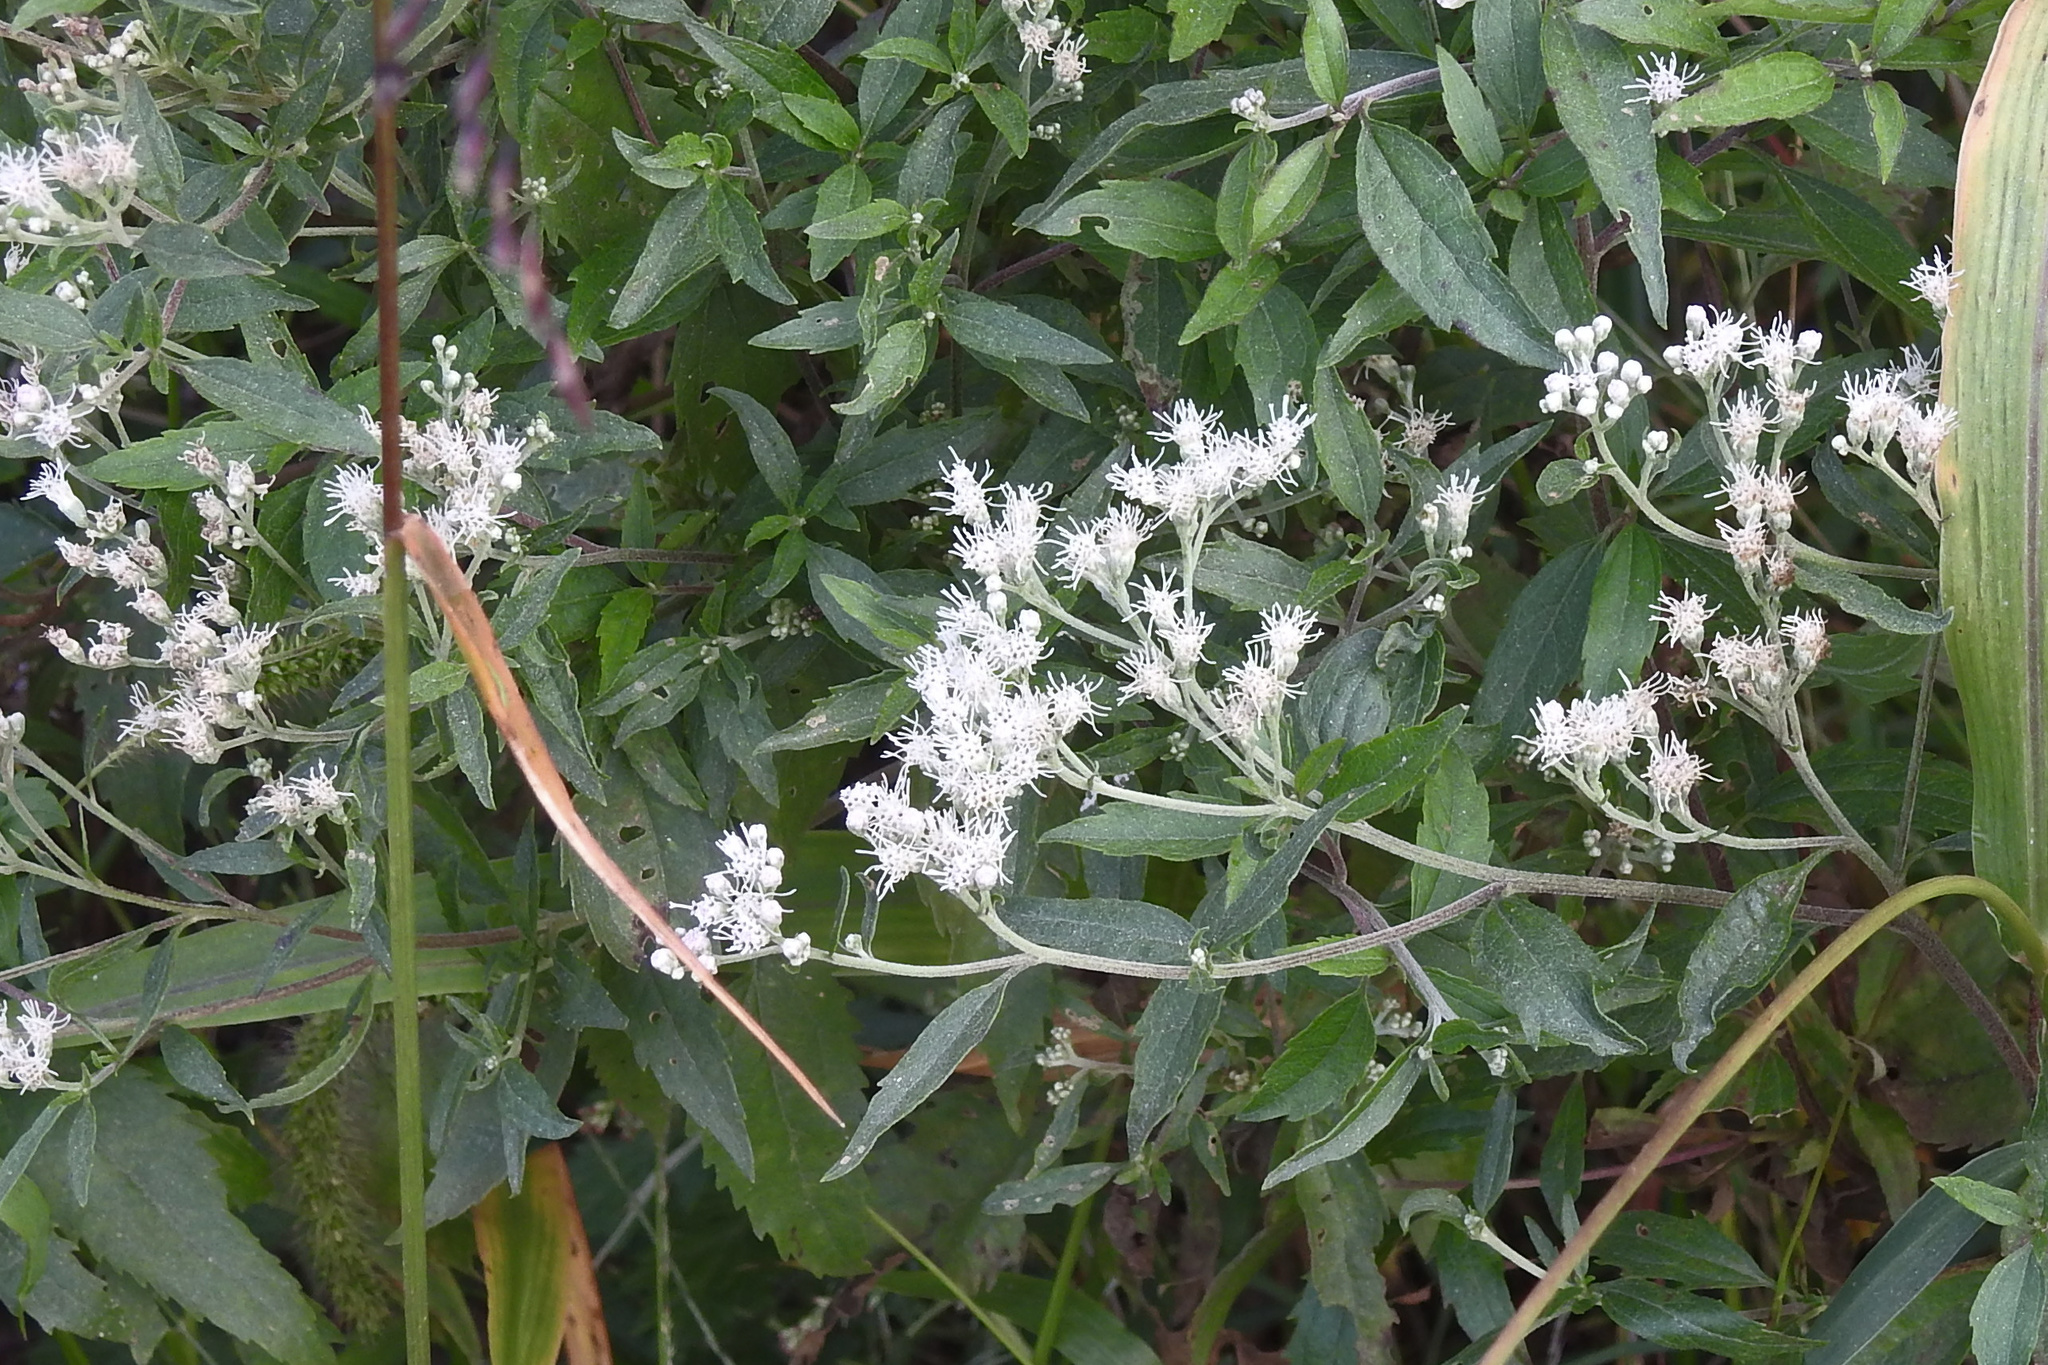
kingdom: Plantae
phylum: Tracheophyta
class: Magnoliopsida
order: Asterales
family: Asteraceae
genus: Eupatorium
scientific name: Eupatorium serotinum
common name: Late boneset
